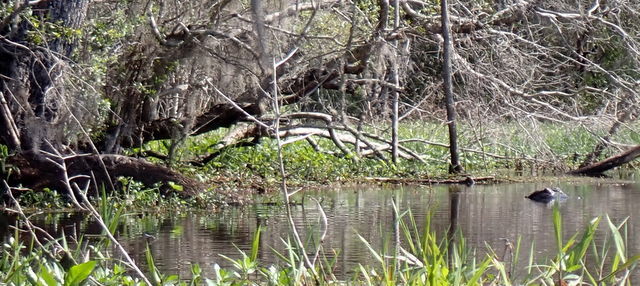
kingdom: Animalia
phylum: Chordata
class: Crocodylia
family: Alligatoridae
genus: Alligator
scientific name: Alligator mississippiensis
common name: American alligator
